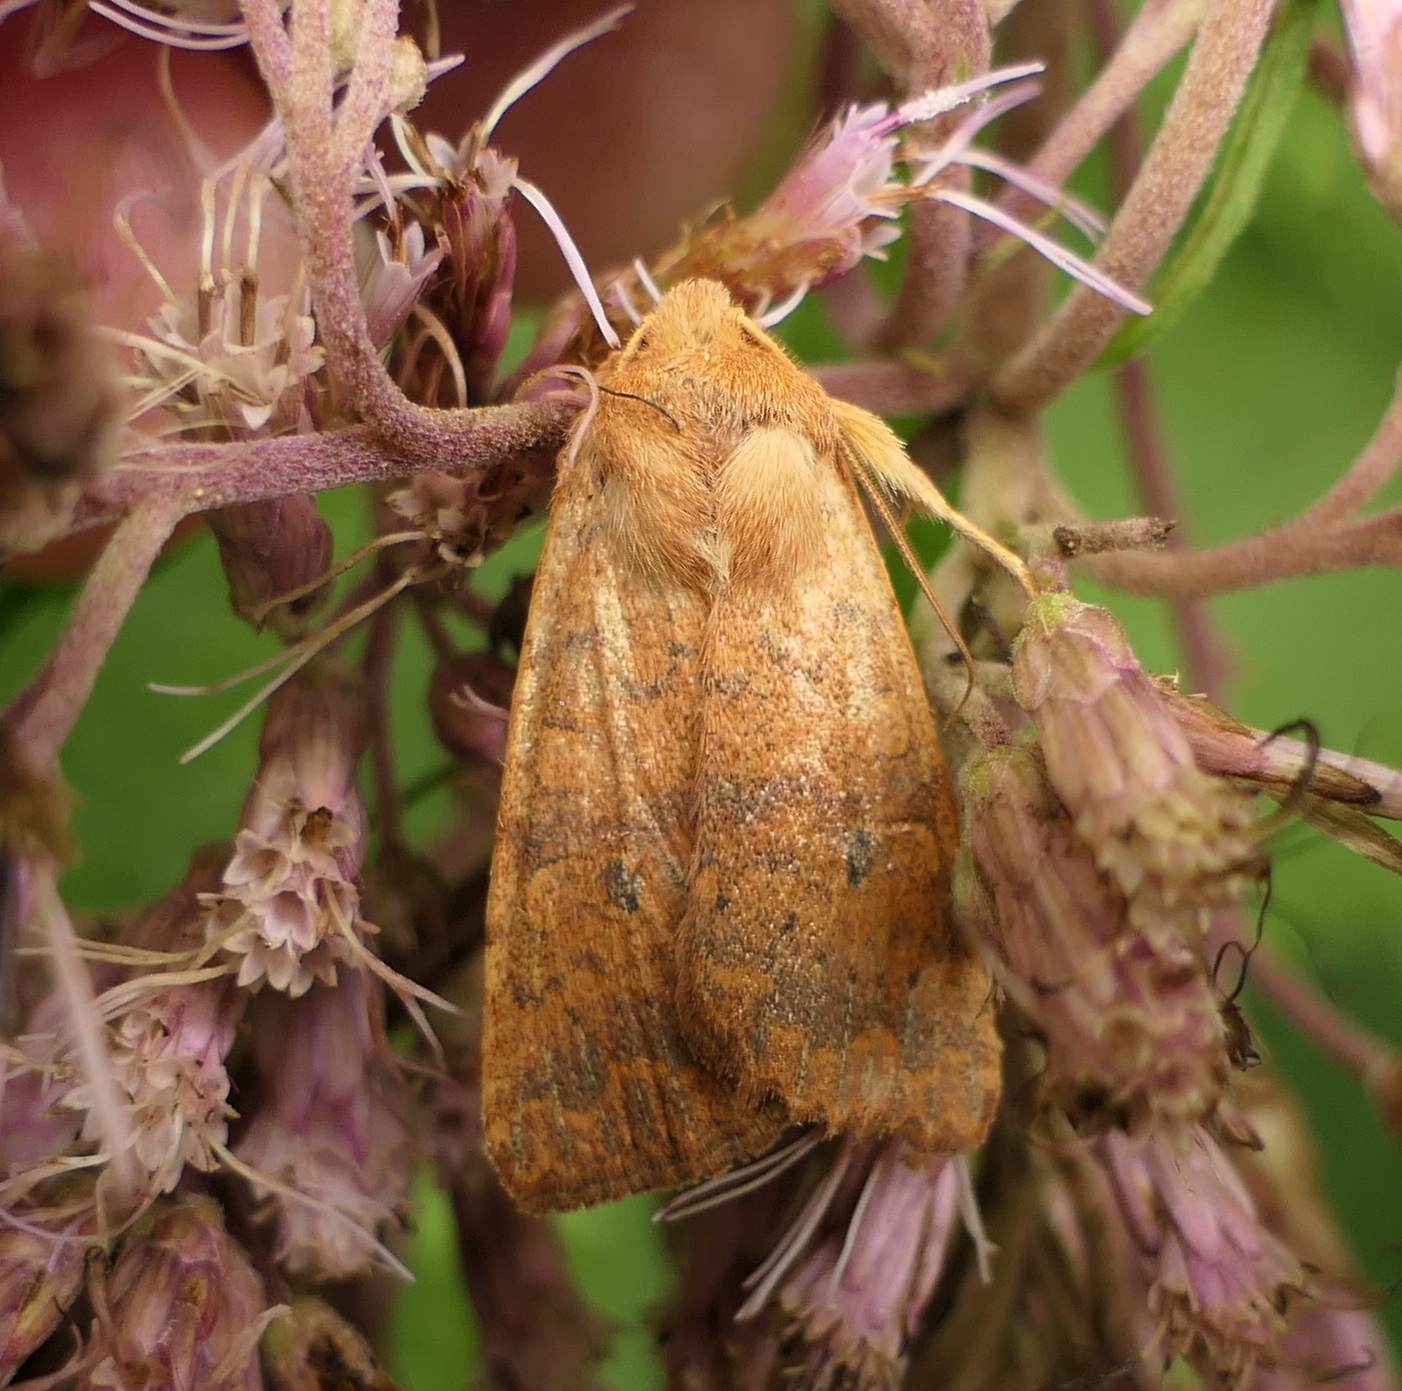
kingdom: Animalia
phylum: Arthropoda
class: Insecta
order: Lepidoptera
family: Noctuidae
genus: Agrochola
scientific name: Agrochola bicolorago
